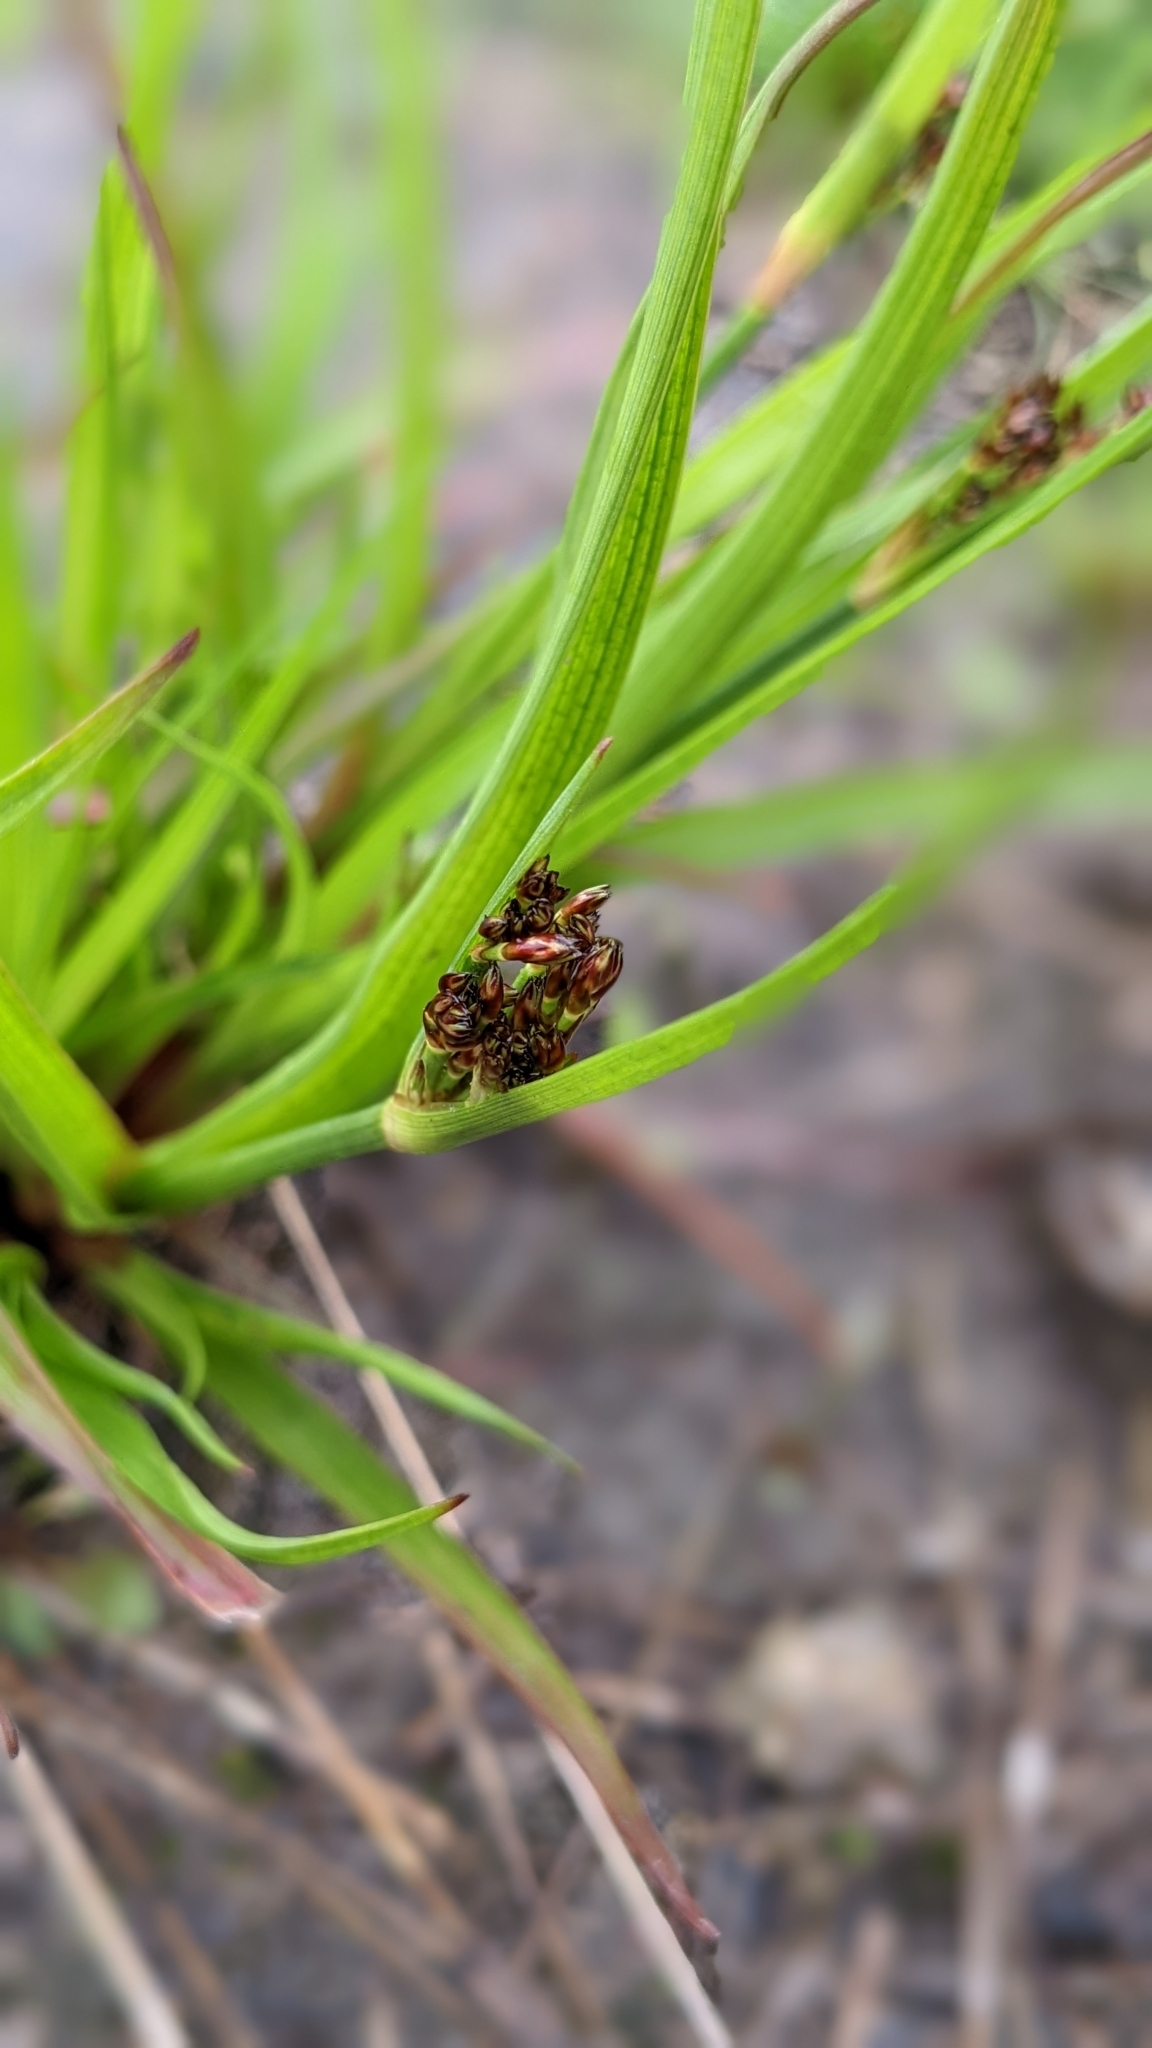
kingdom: Plantae
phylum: Tracheophyta
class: Liliopsida
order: Poales
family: Juncaceae
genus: Juncus
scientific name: Juncus planifolius
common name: Broadleaf rush
